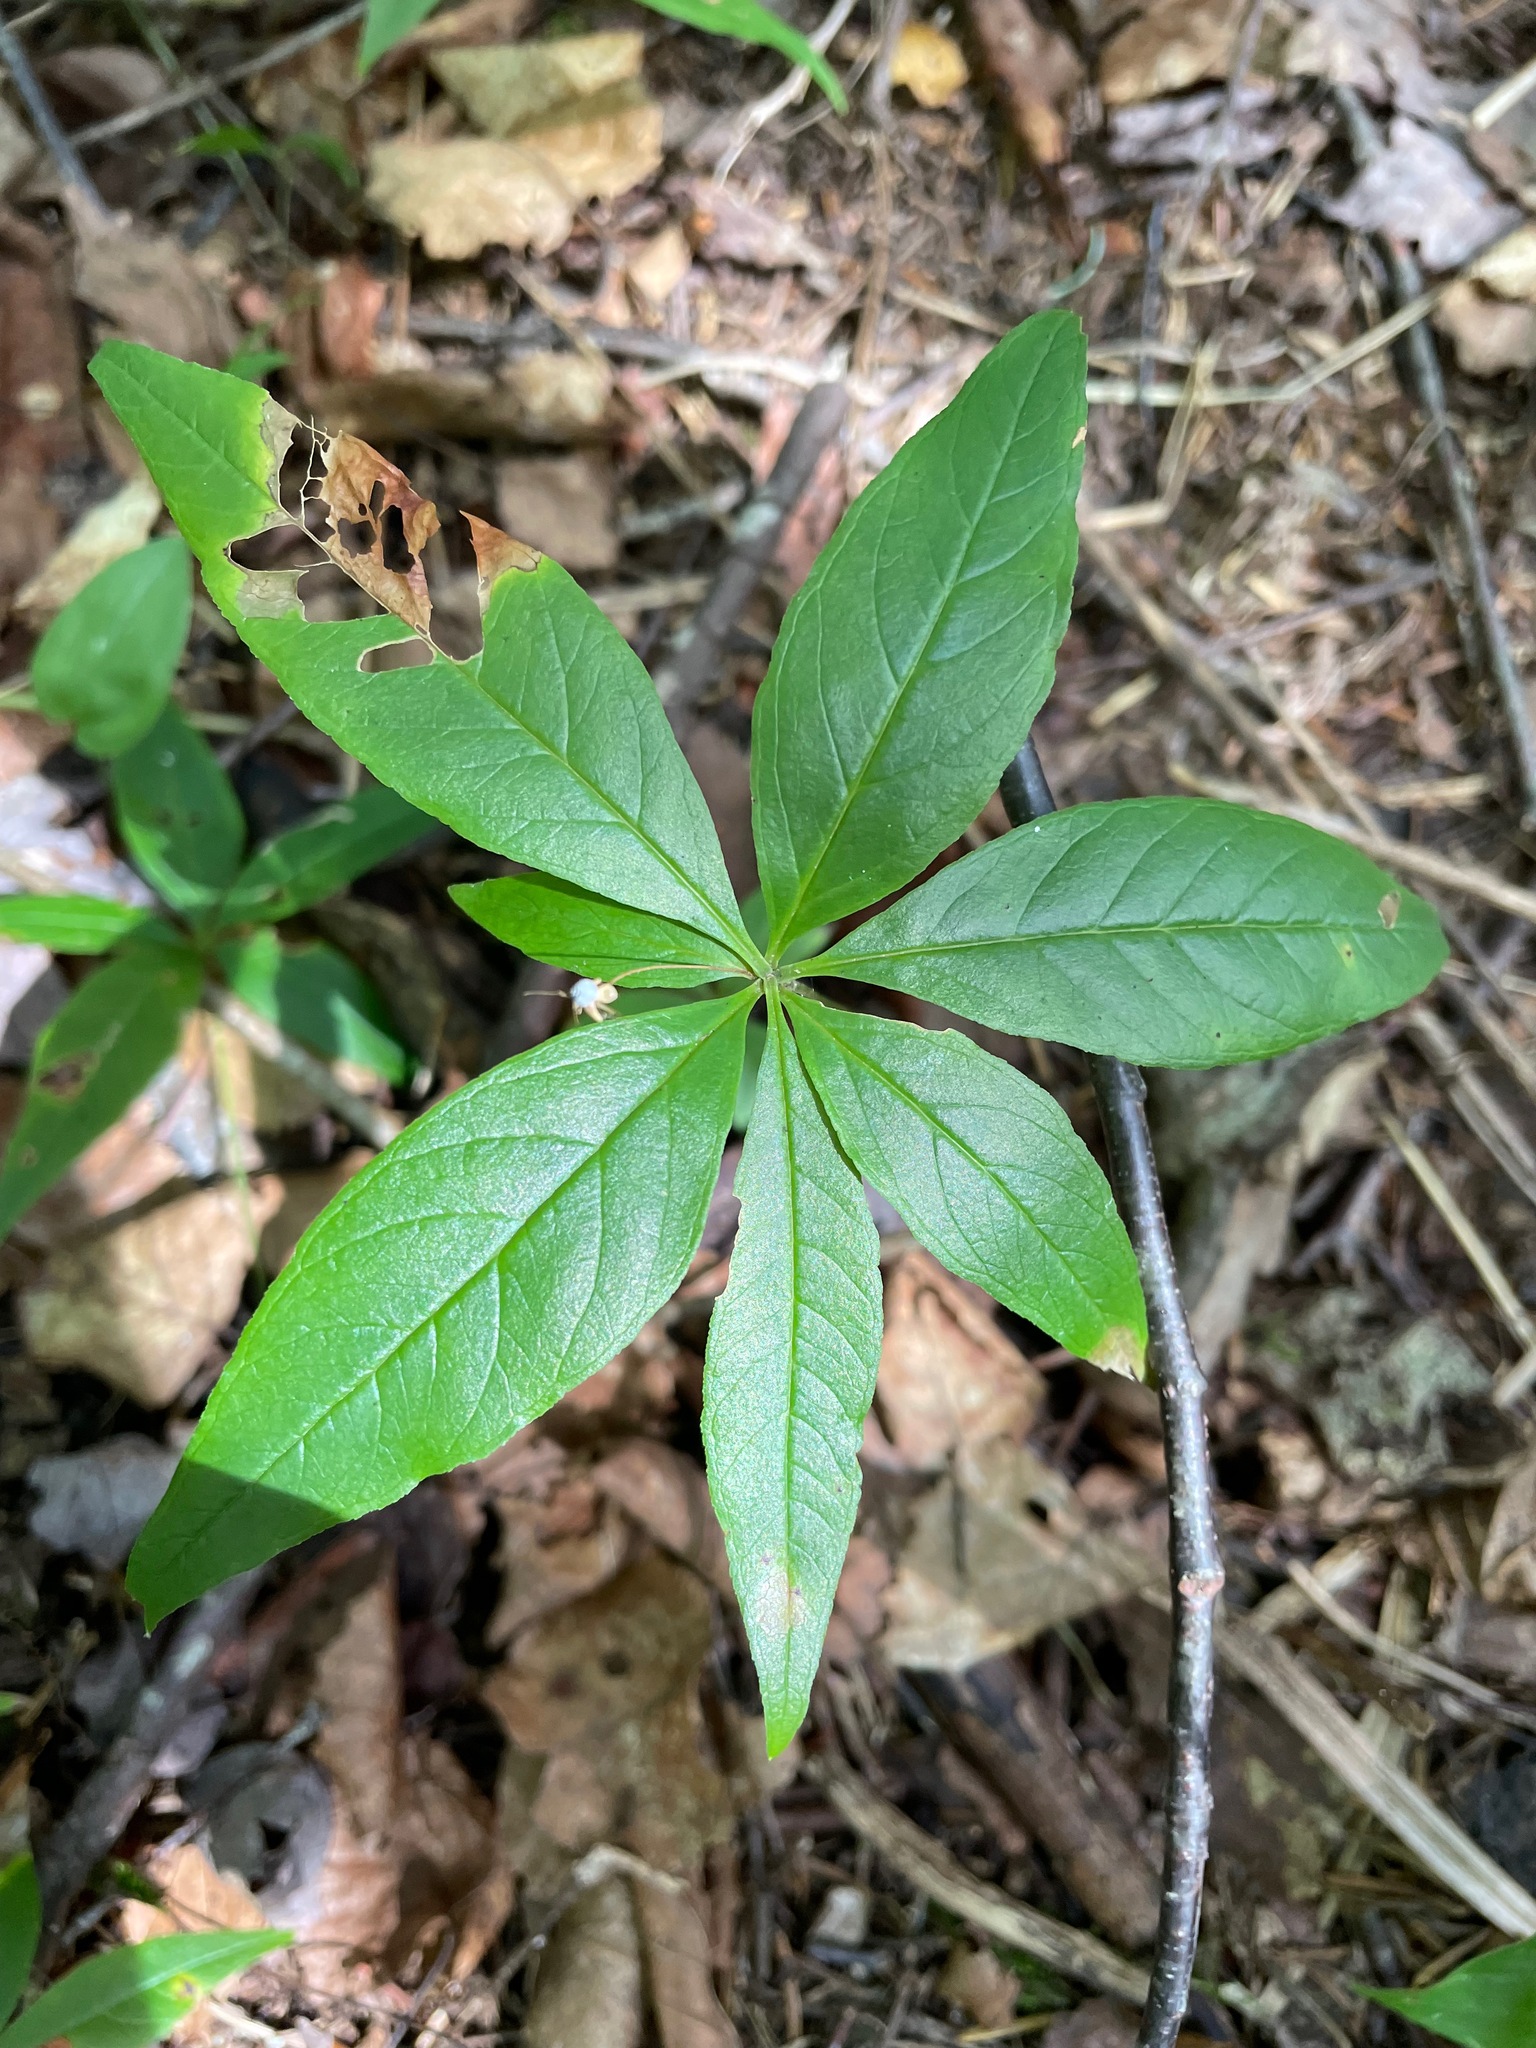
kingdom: Plantae
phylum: Tracheophyta
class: Magnoliopsida
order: Ericales
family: Primulaceae
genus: Lysimachia
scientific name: Lysimachia borealis
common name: American starflower
